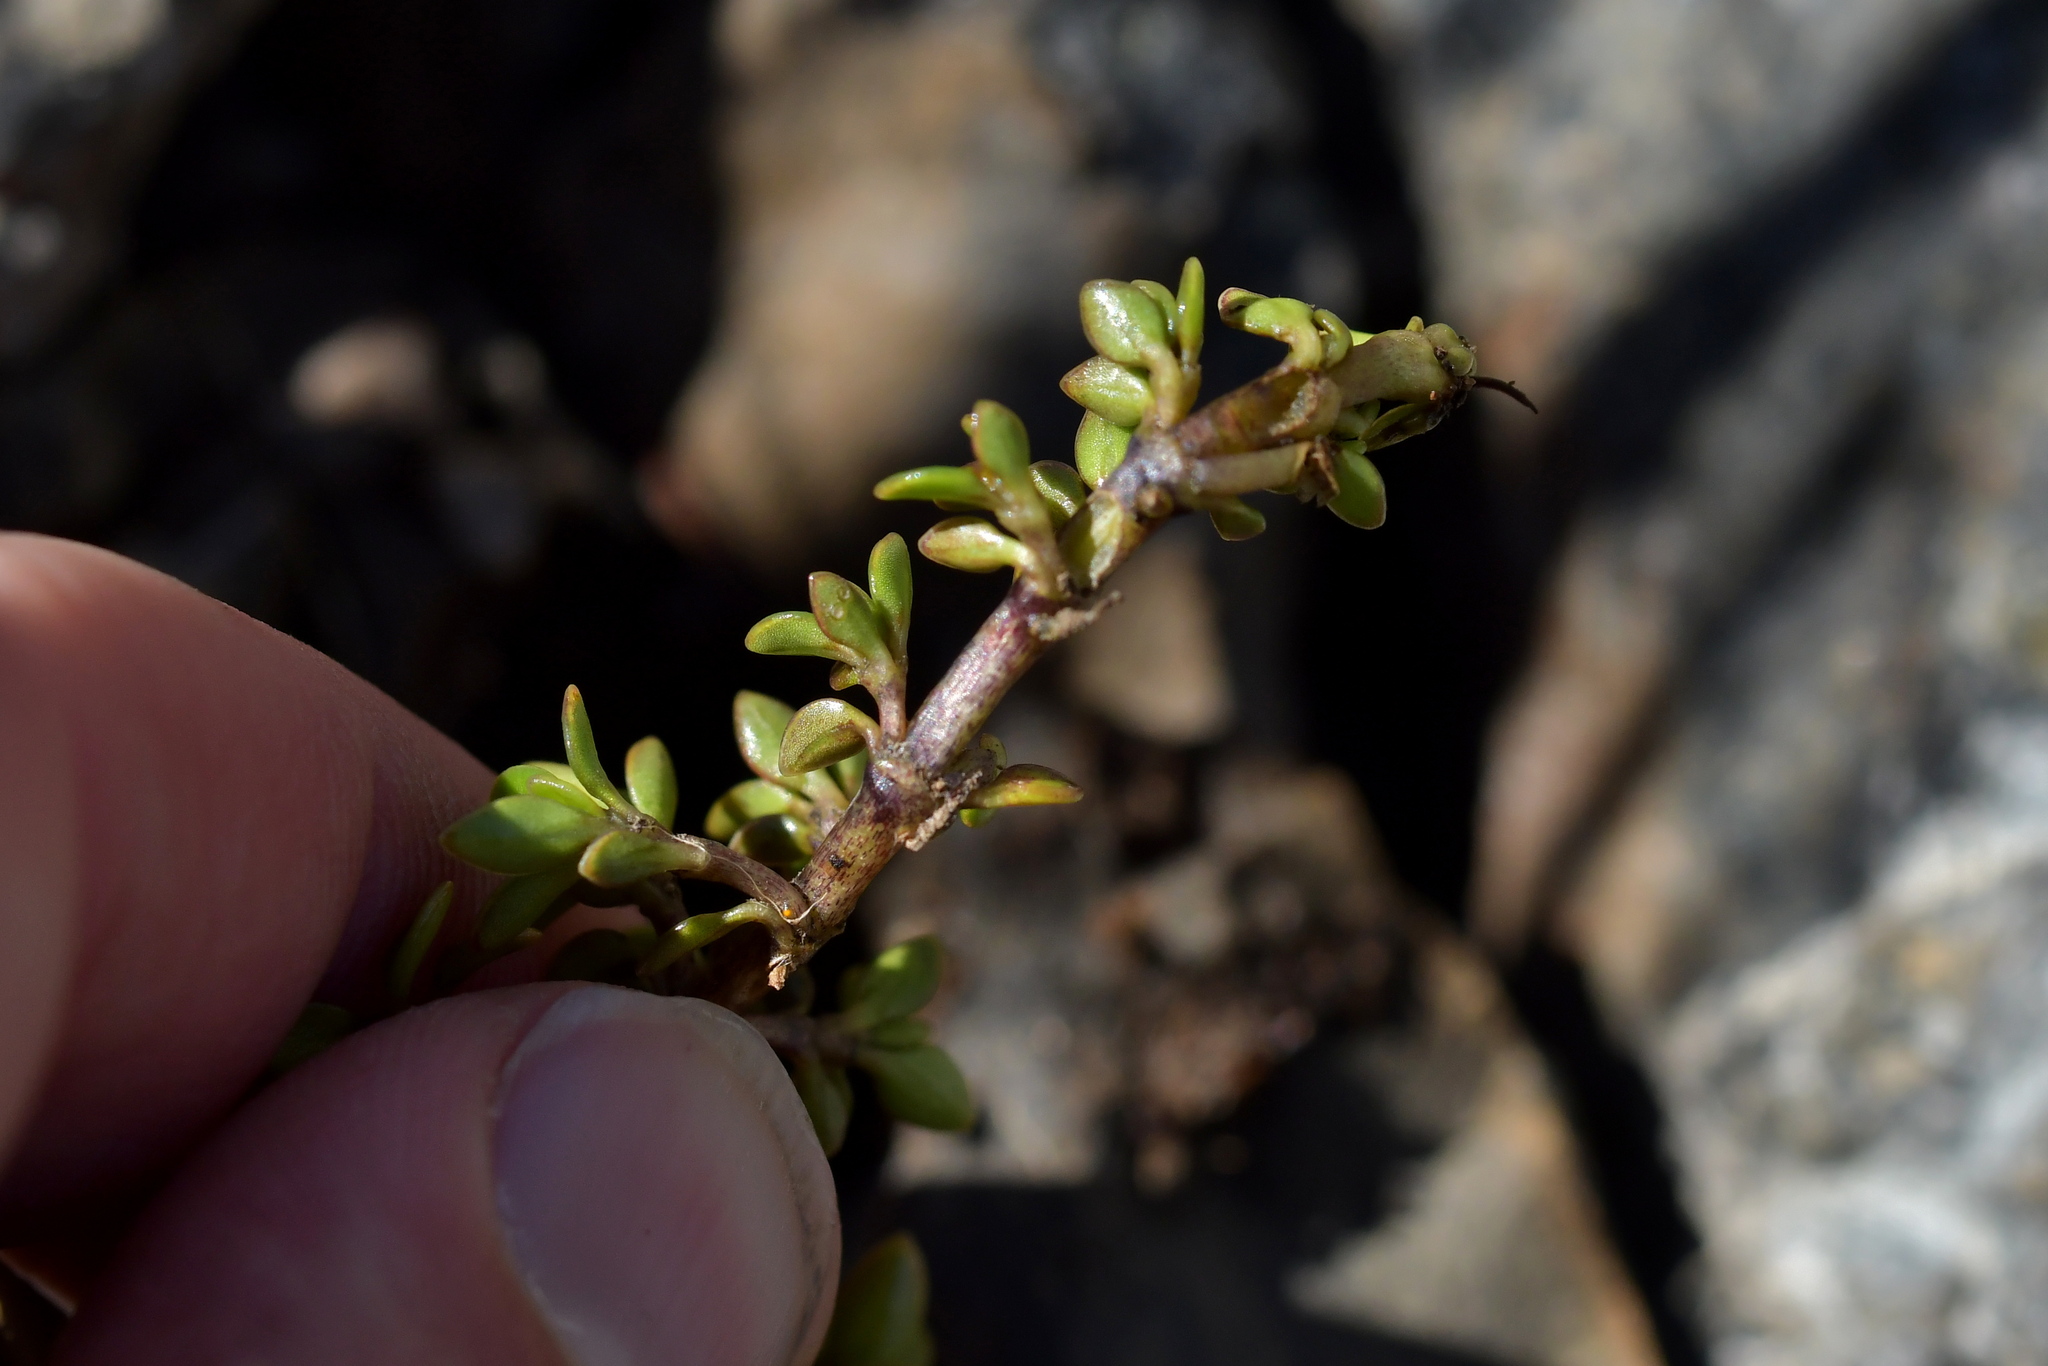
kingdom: Plantae
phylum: Tracheophyta
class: Magnoliopsida
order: Gentianales
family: Rubiaceae
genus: Coprosma
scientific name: Coprosma perpusilla
